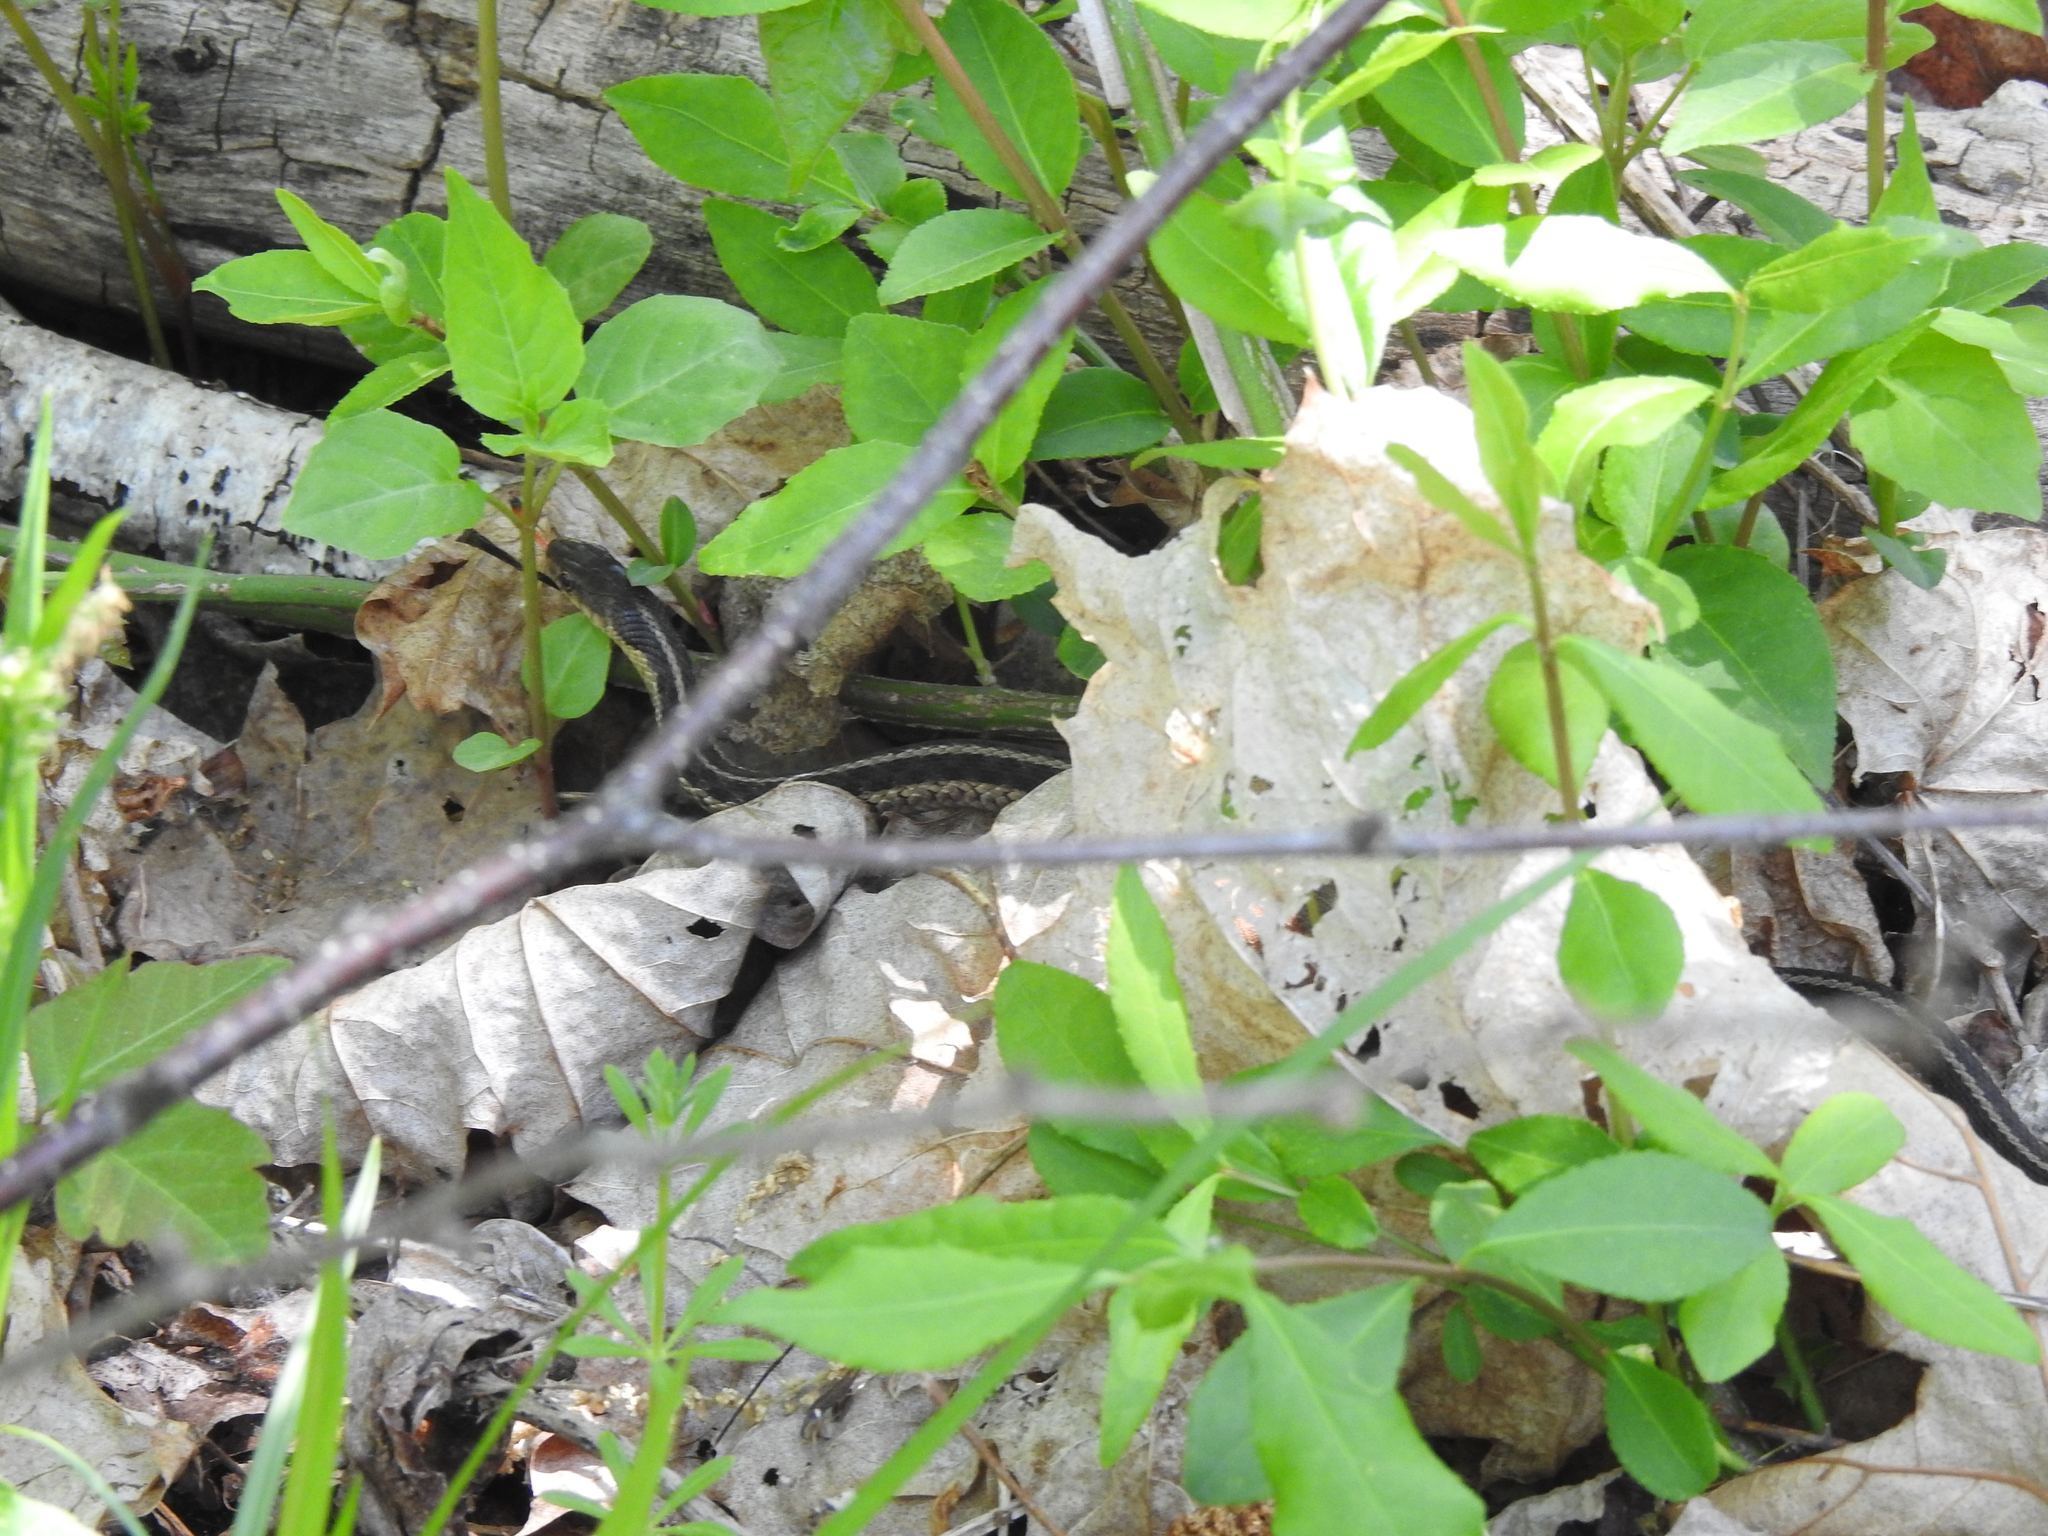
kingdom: Animalia
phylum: Chordata
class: Squamata
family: Colubridae
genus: Thamnophis
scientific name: Thamnophis sirtalis
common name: Common garter snake
